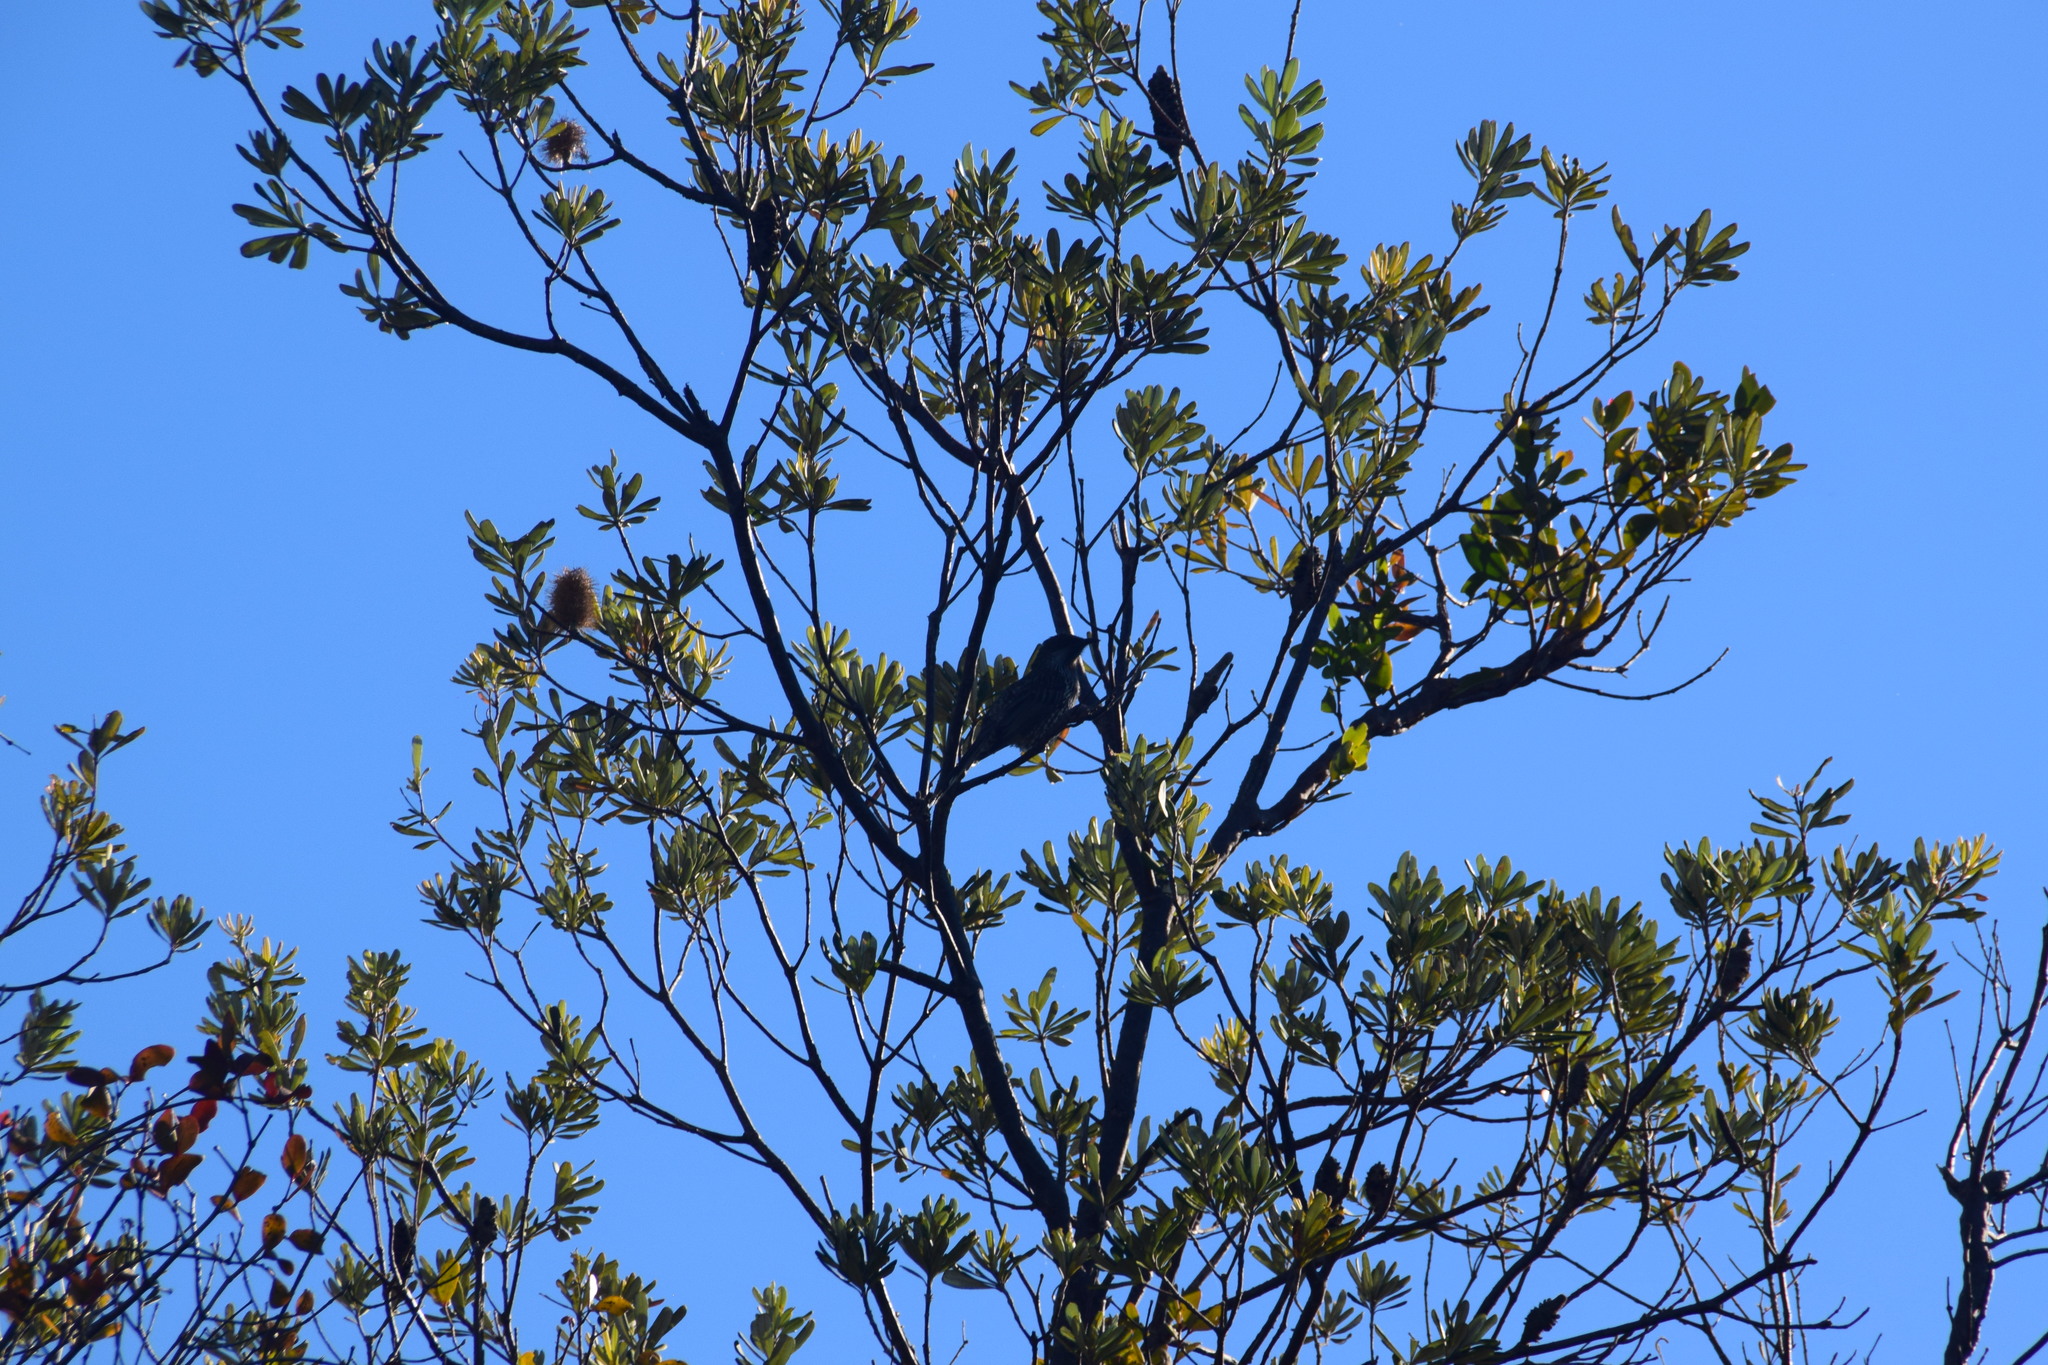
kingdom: Animalia
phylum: Chordata
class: Aves
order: Passeriformes
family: Meliphagidae
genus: Anthochaera
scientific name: Anthochaera chrysoptera
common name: Little wattlebird
